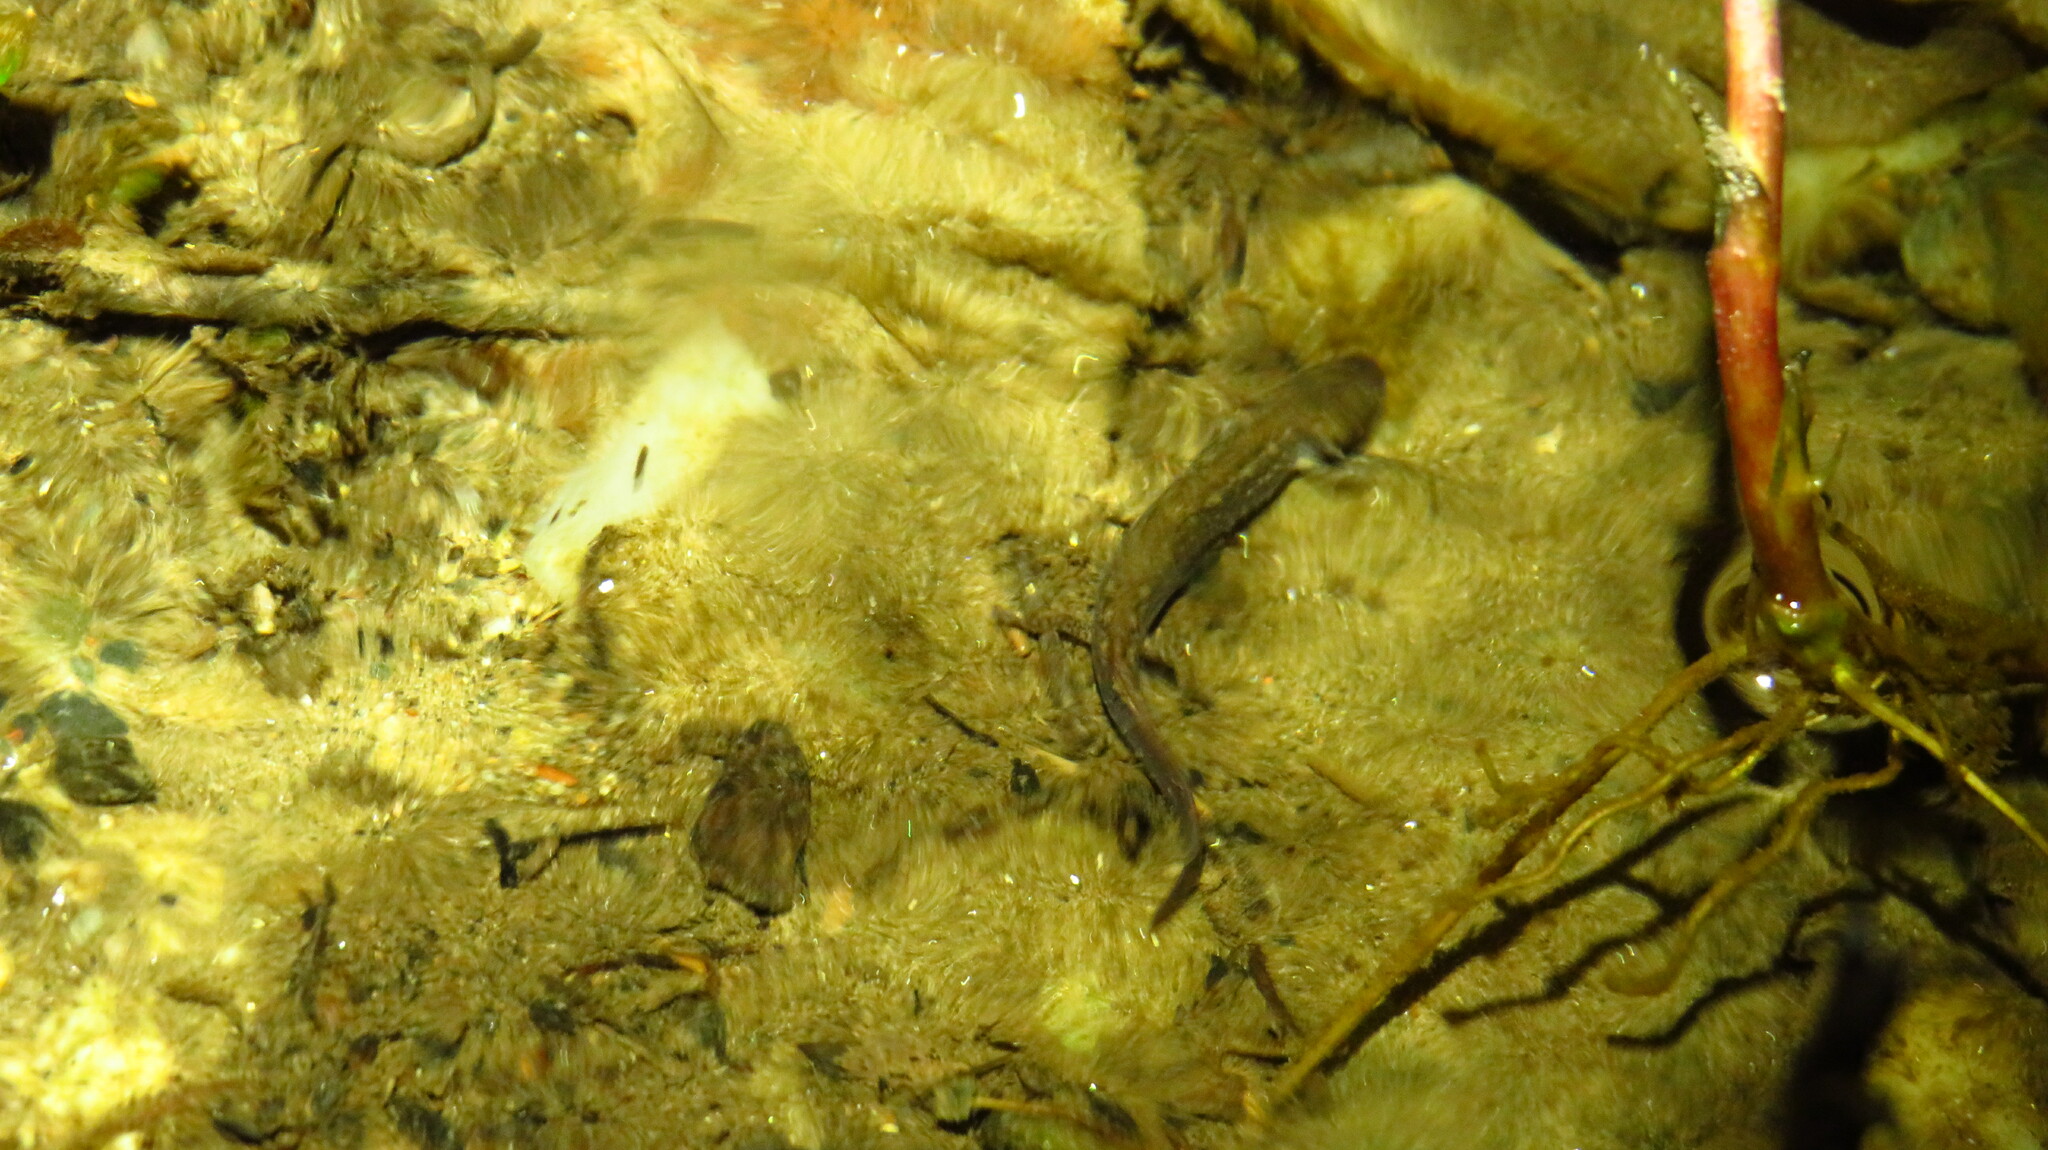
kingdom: Animalia
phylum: Chordata
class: Amphibia
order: Caudata
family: Plethodontidae
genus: Eurycea
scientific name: Eurycea bislineata
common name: Northern two-lined salamander
